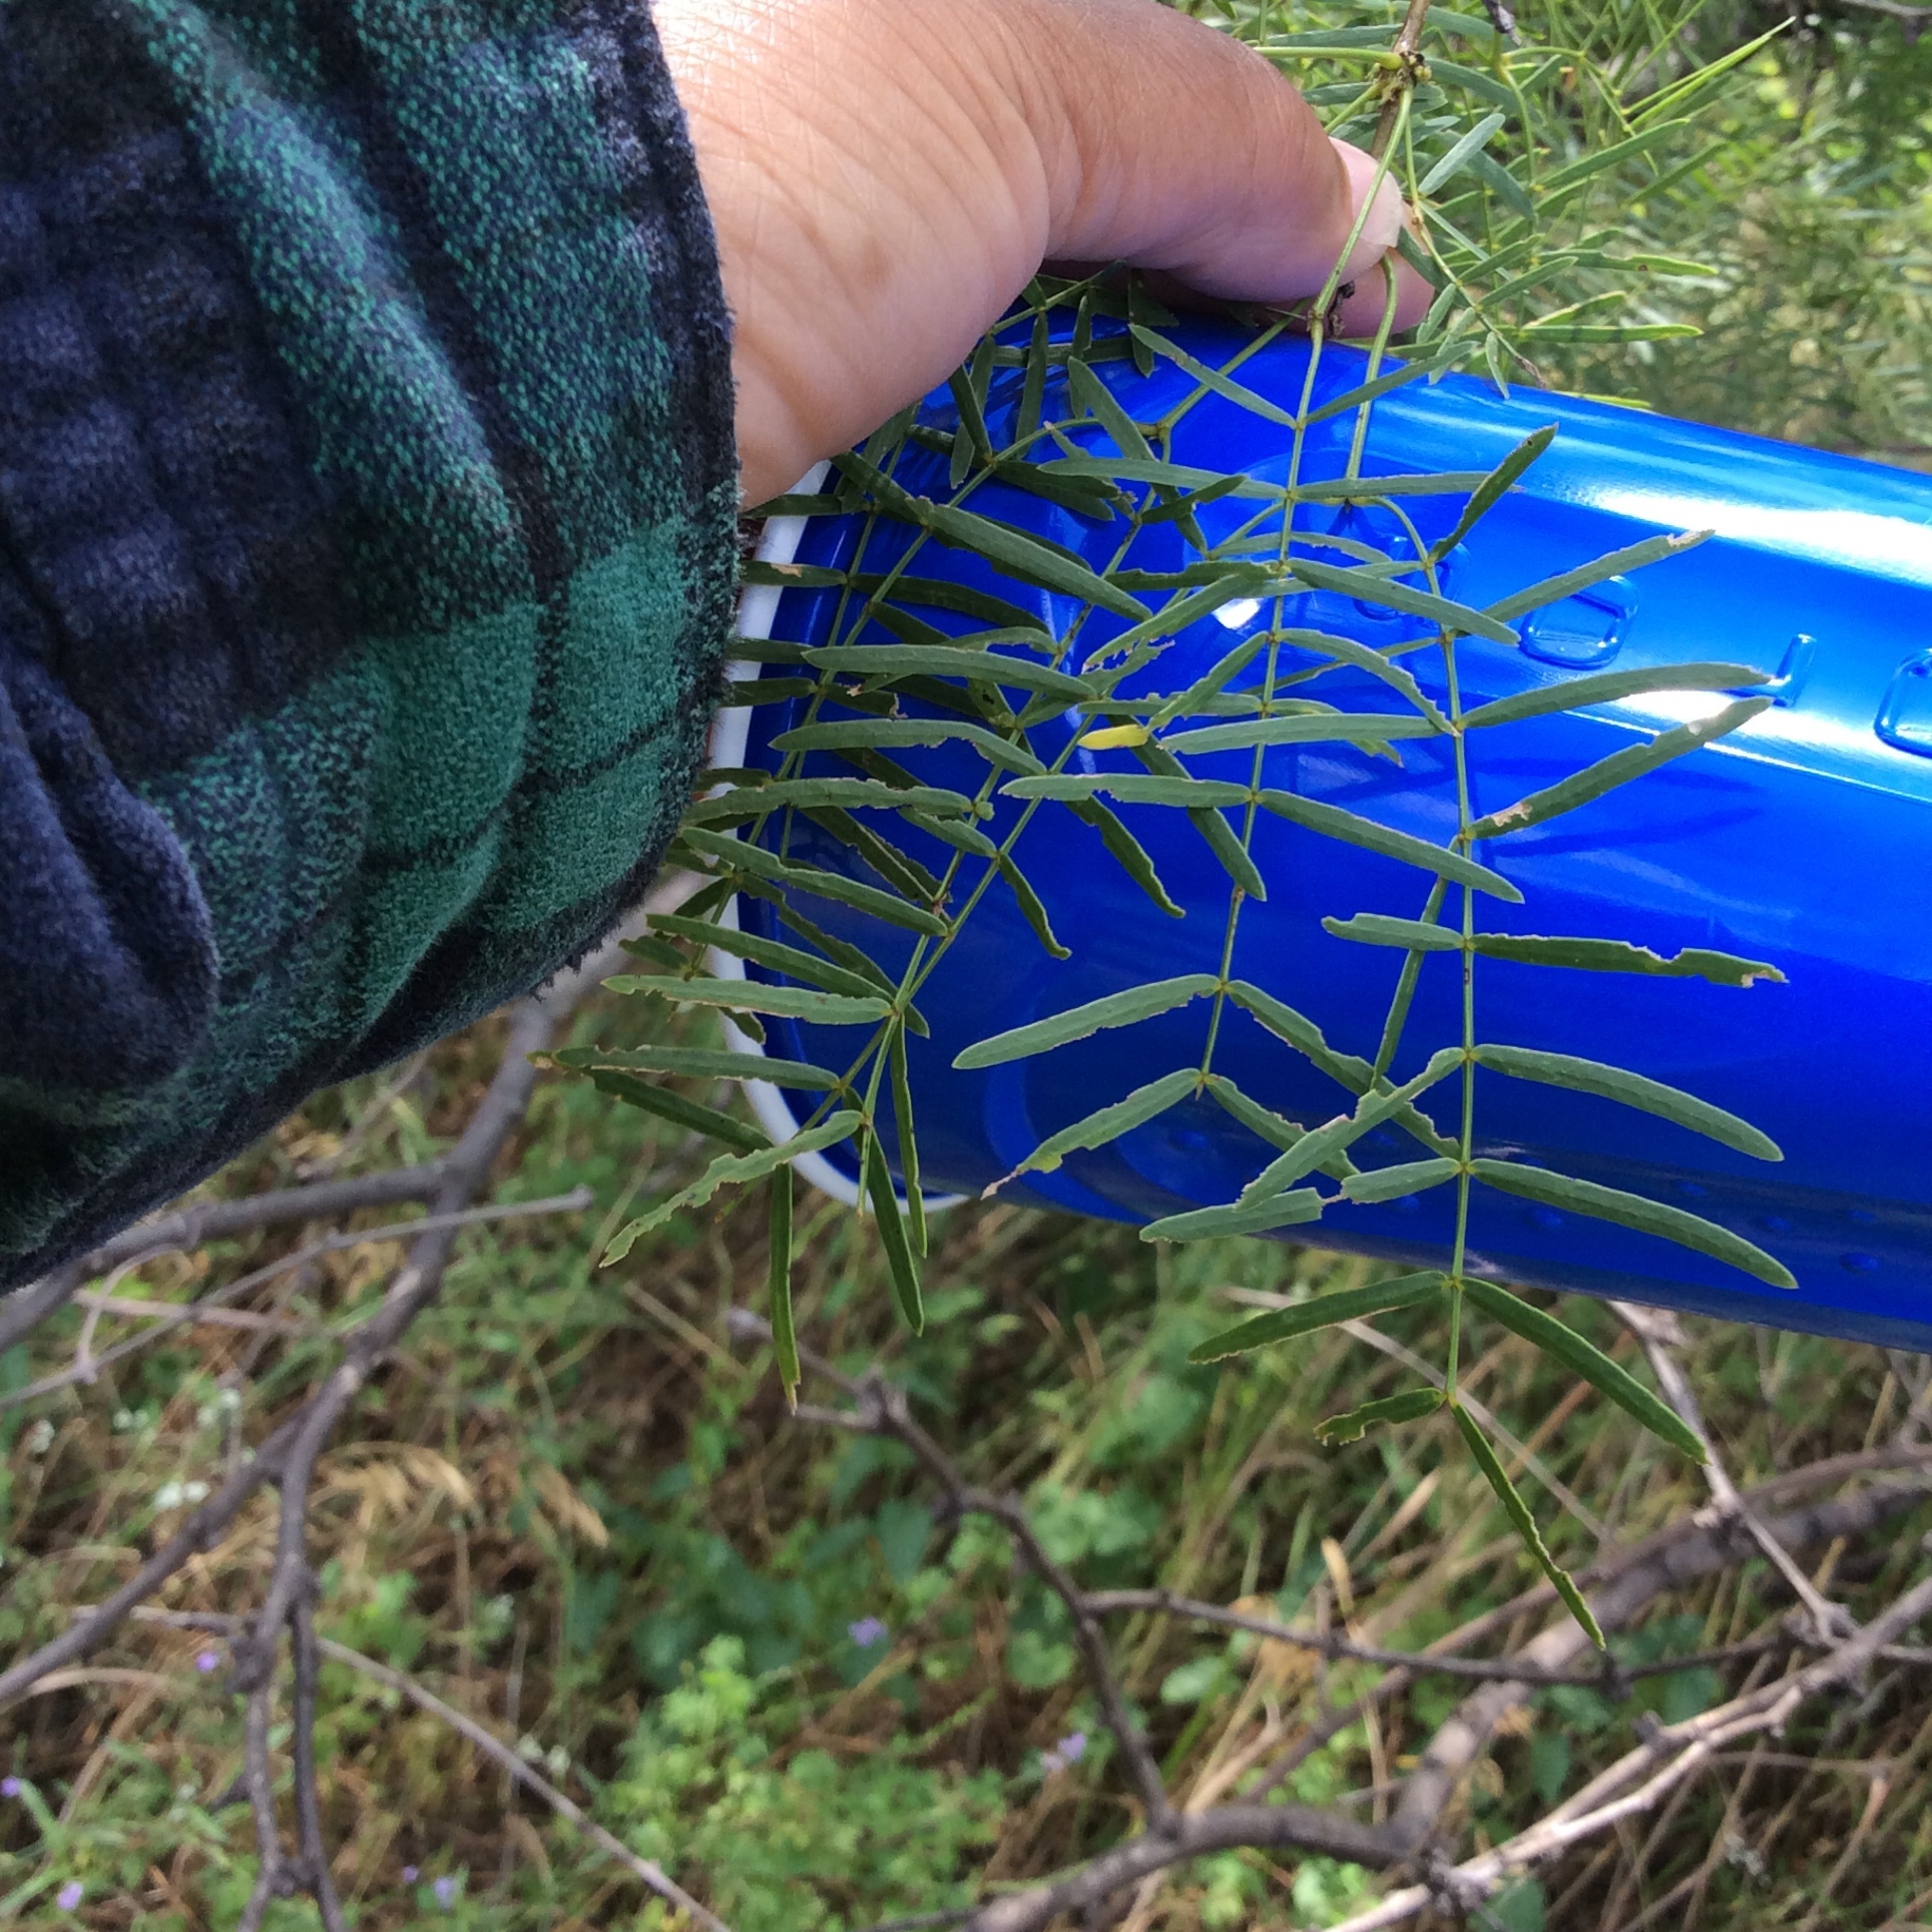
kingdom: Plantae
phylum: Tracheophyta
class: Magnoliopsida
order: Fabales
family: Fabaceae
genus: Prosopis
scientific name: Prosopis glandulosa
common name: Honey mesquite
